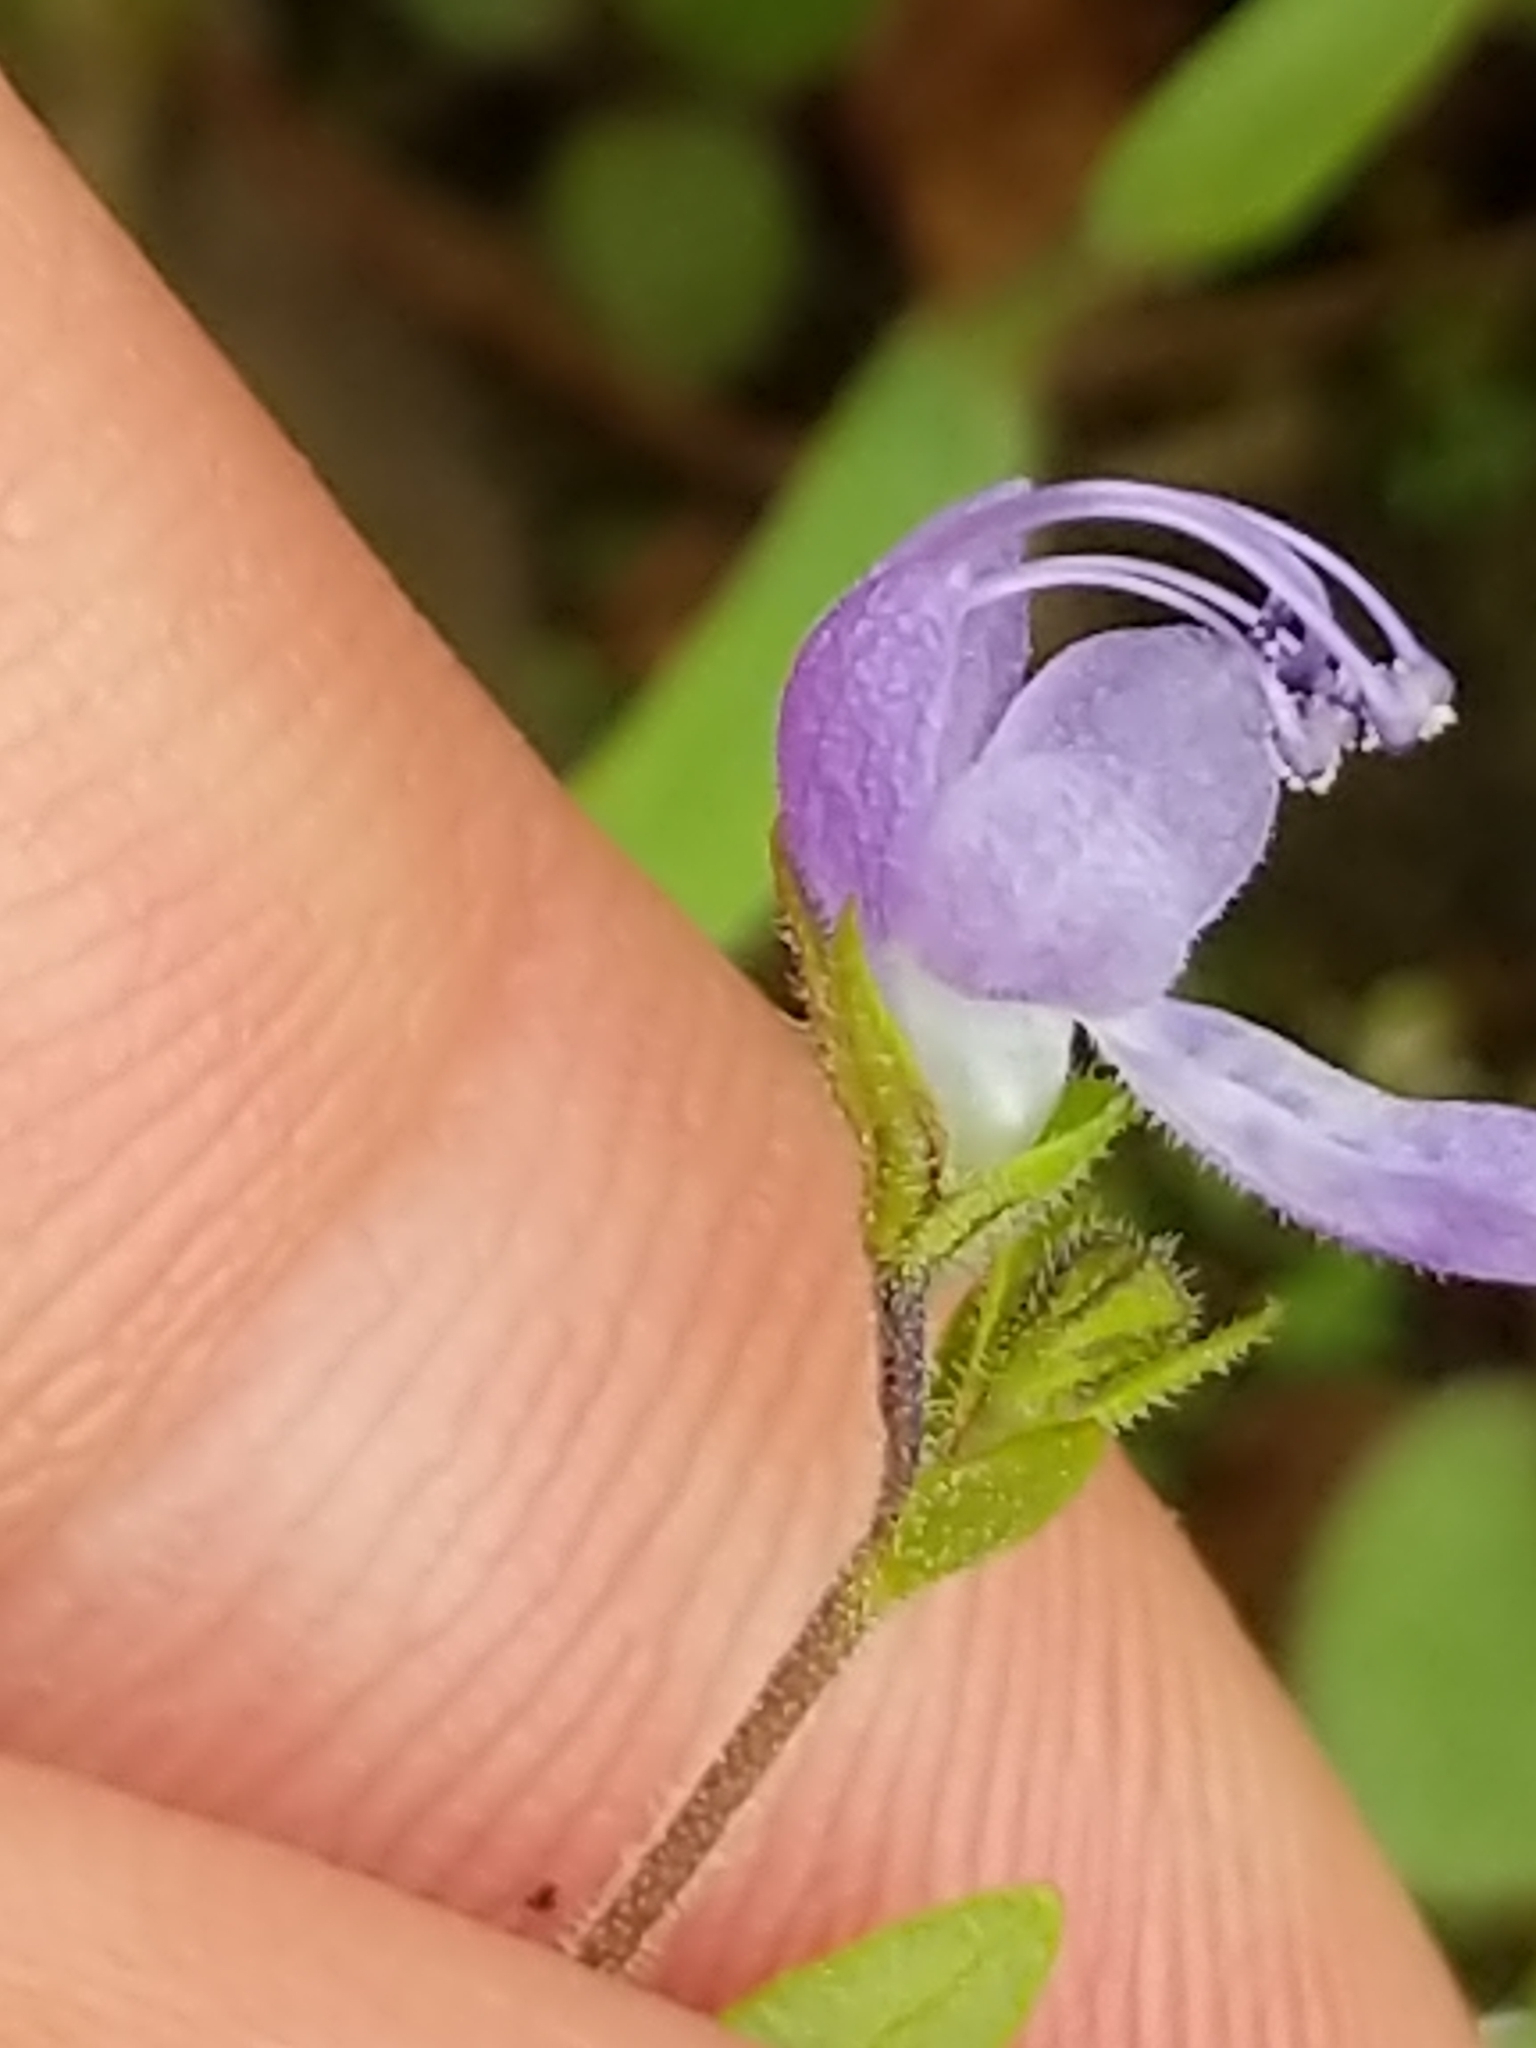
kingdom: Plantae
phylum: Tracheophyta
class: Magnoliopsida
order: Lamiales
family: Lamiaceae
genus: Trichostema
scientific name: Trichostema dichotomum
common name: Bastard pennyroyal
